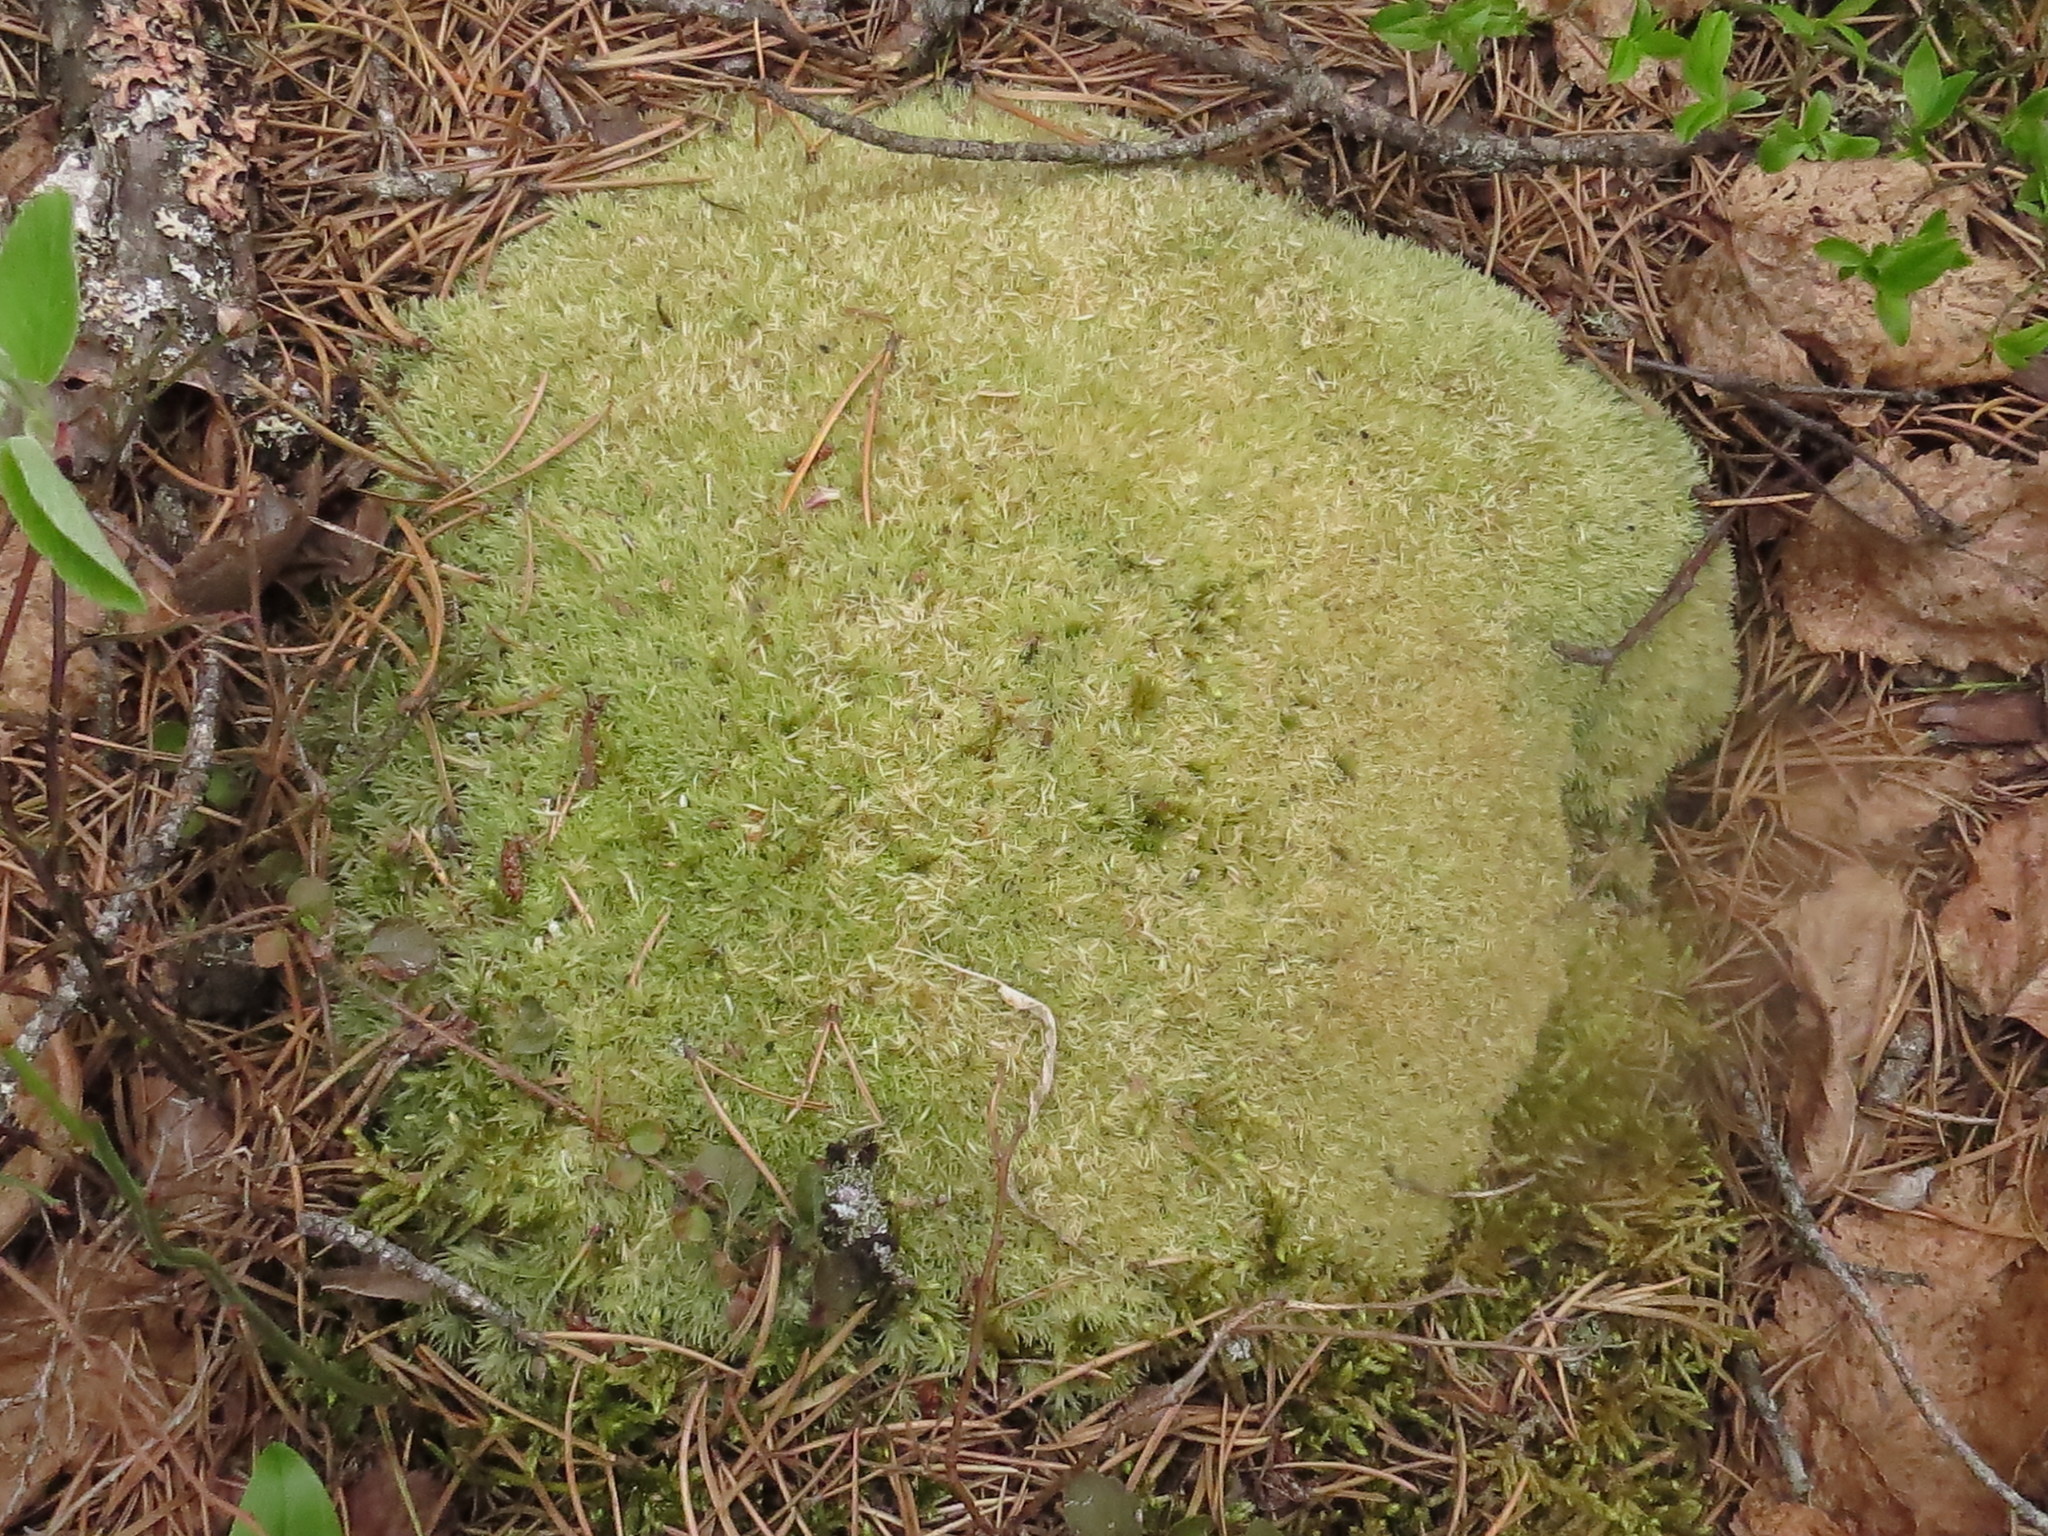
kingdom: Plantae
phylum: Bryophyta
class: Bryopsida
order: Dicranales
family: Leucobryaceae
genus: Leucobryum
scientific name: Leucobryum glaucum
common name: Large white-moss
